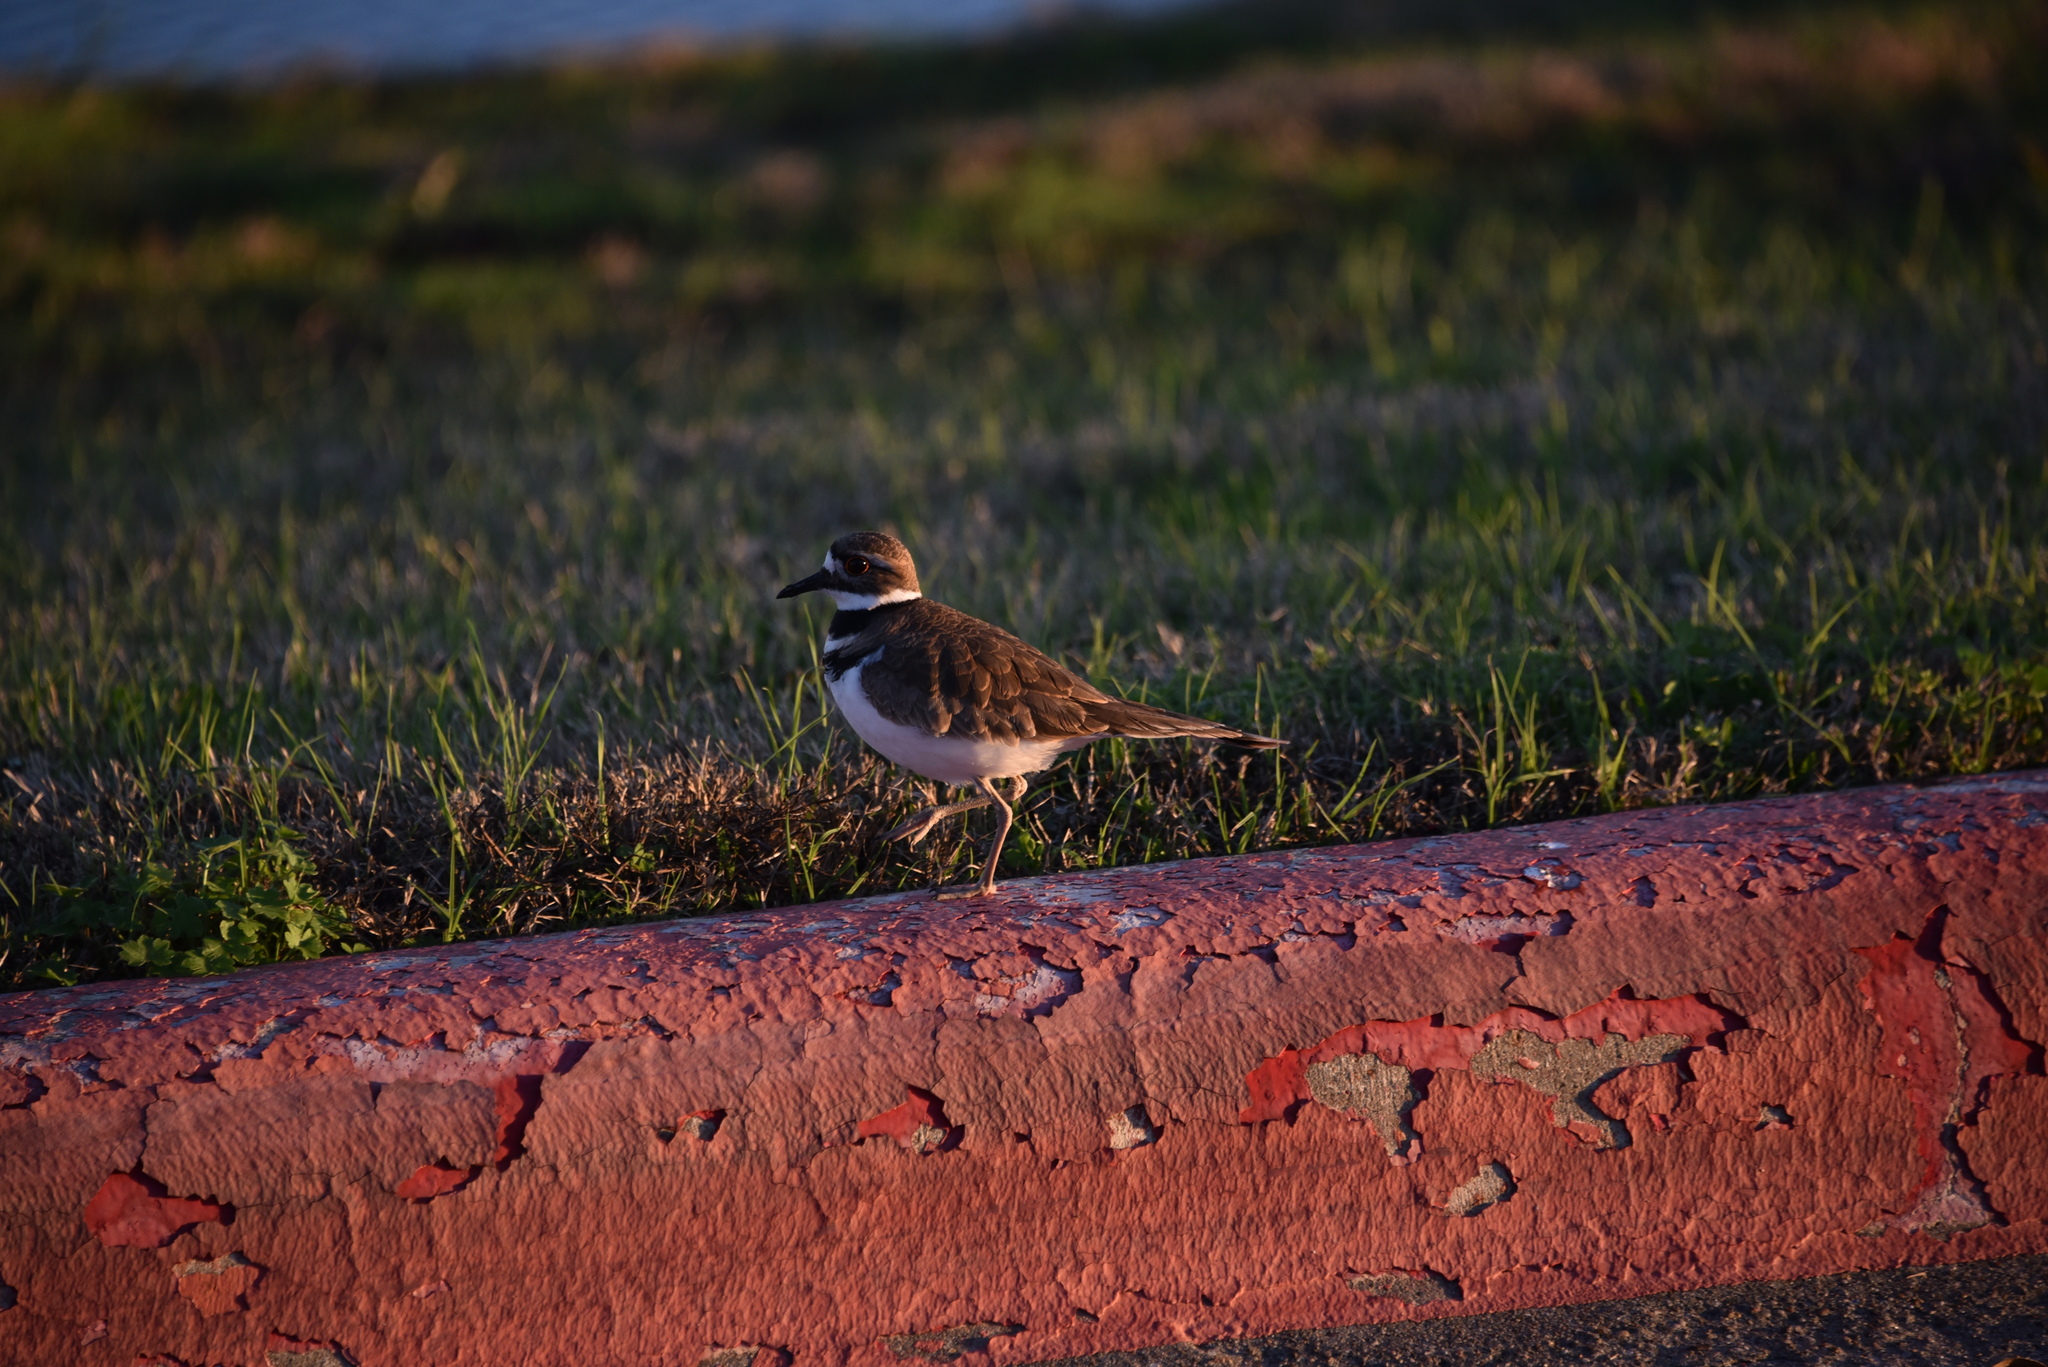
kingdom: Animalia
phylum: Chordata
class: Aves
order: Charadriiformes
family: Charadriidae
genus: Charadrius
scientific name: Charadrius vociferus
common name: Killdeer
